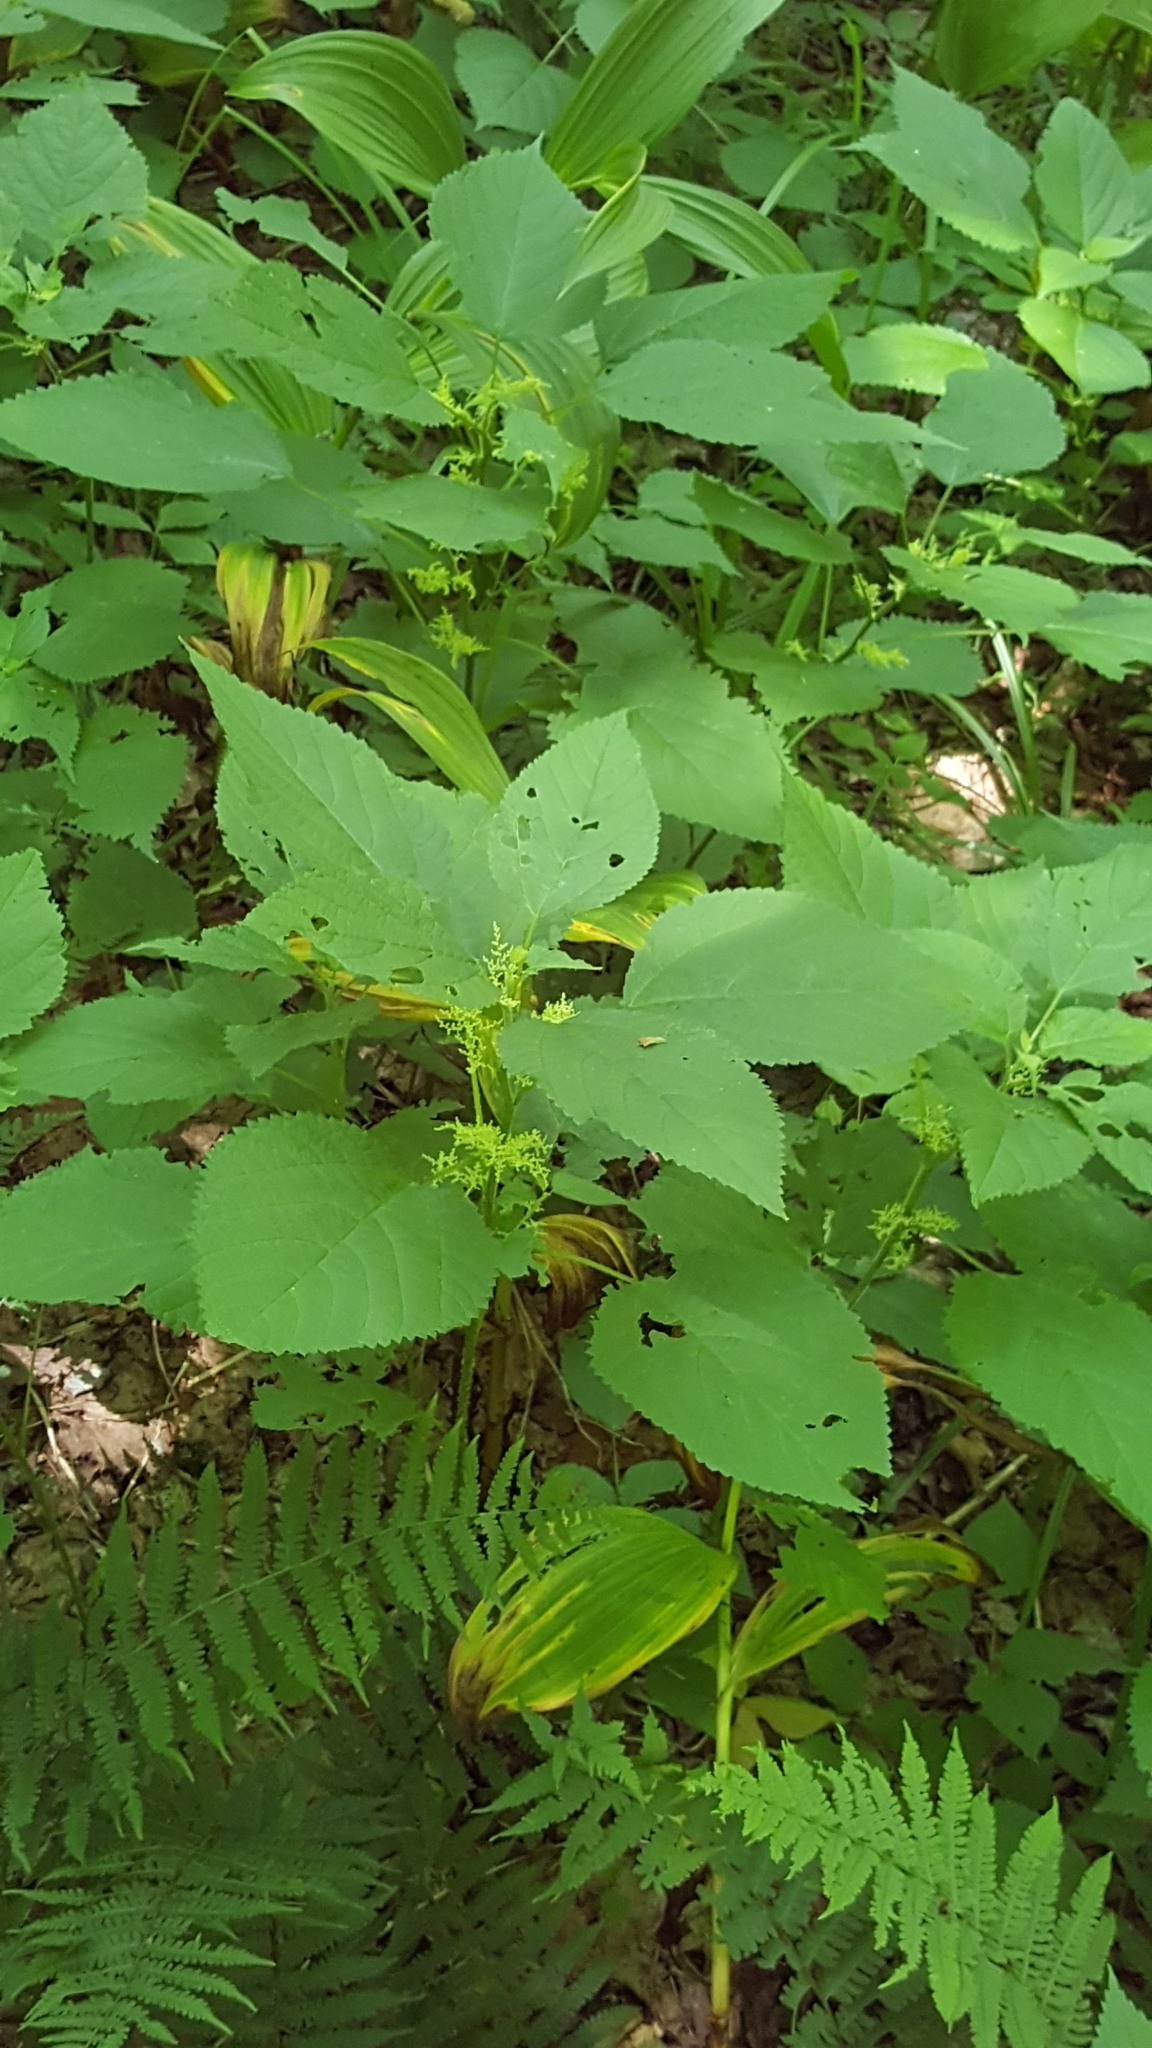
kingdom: Plantae
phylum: Tracheophyta
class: Magnoliopsida
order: Rosales
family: Urticaceae
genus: Laportea
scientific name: Laportea canadensis
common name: Canada nettle
